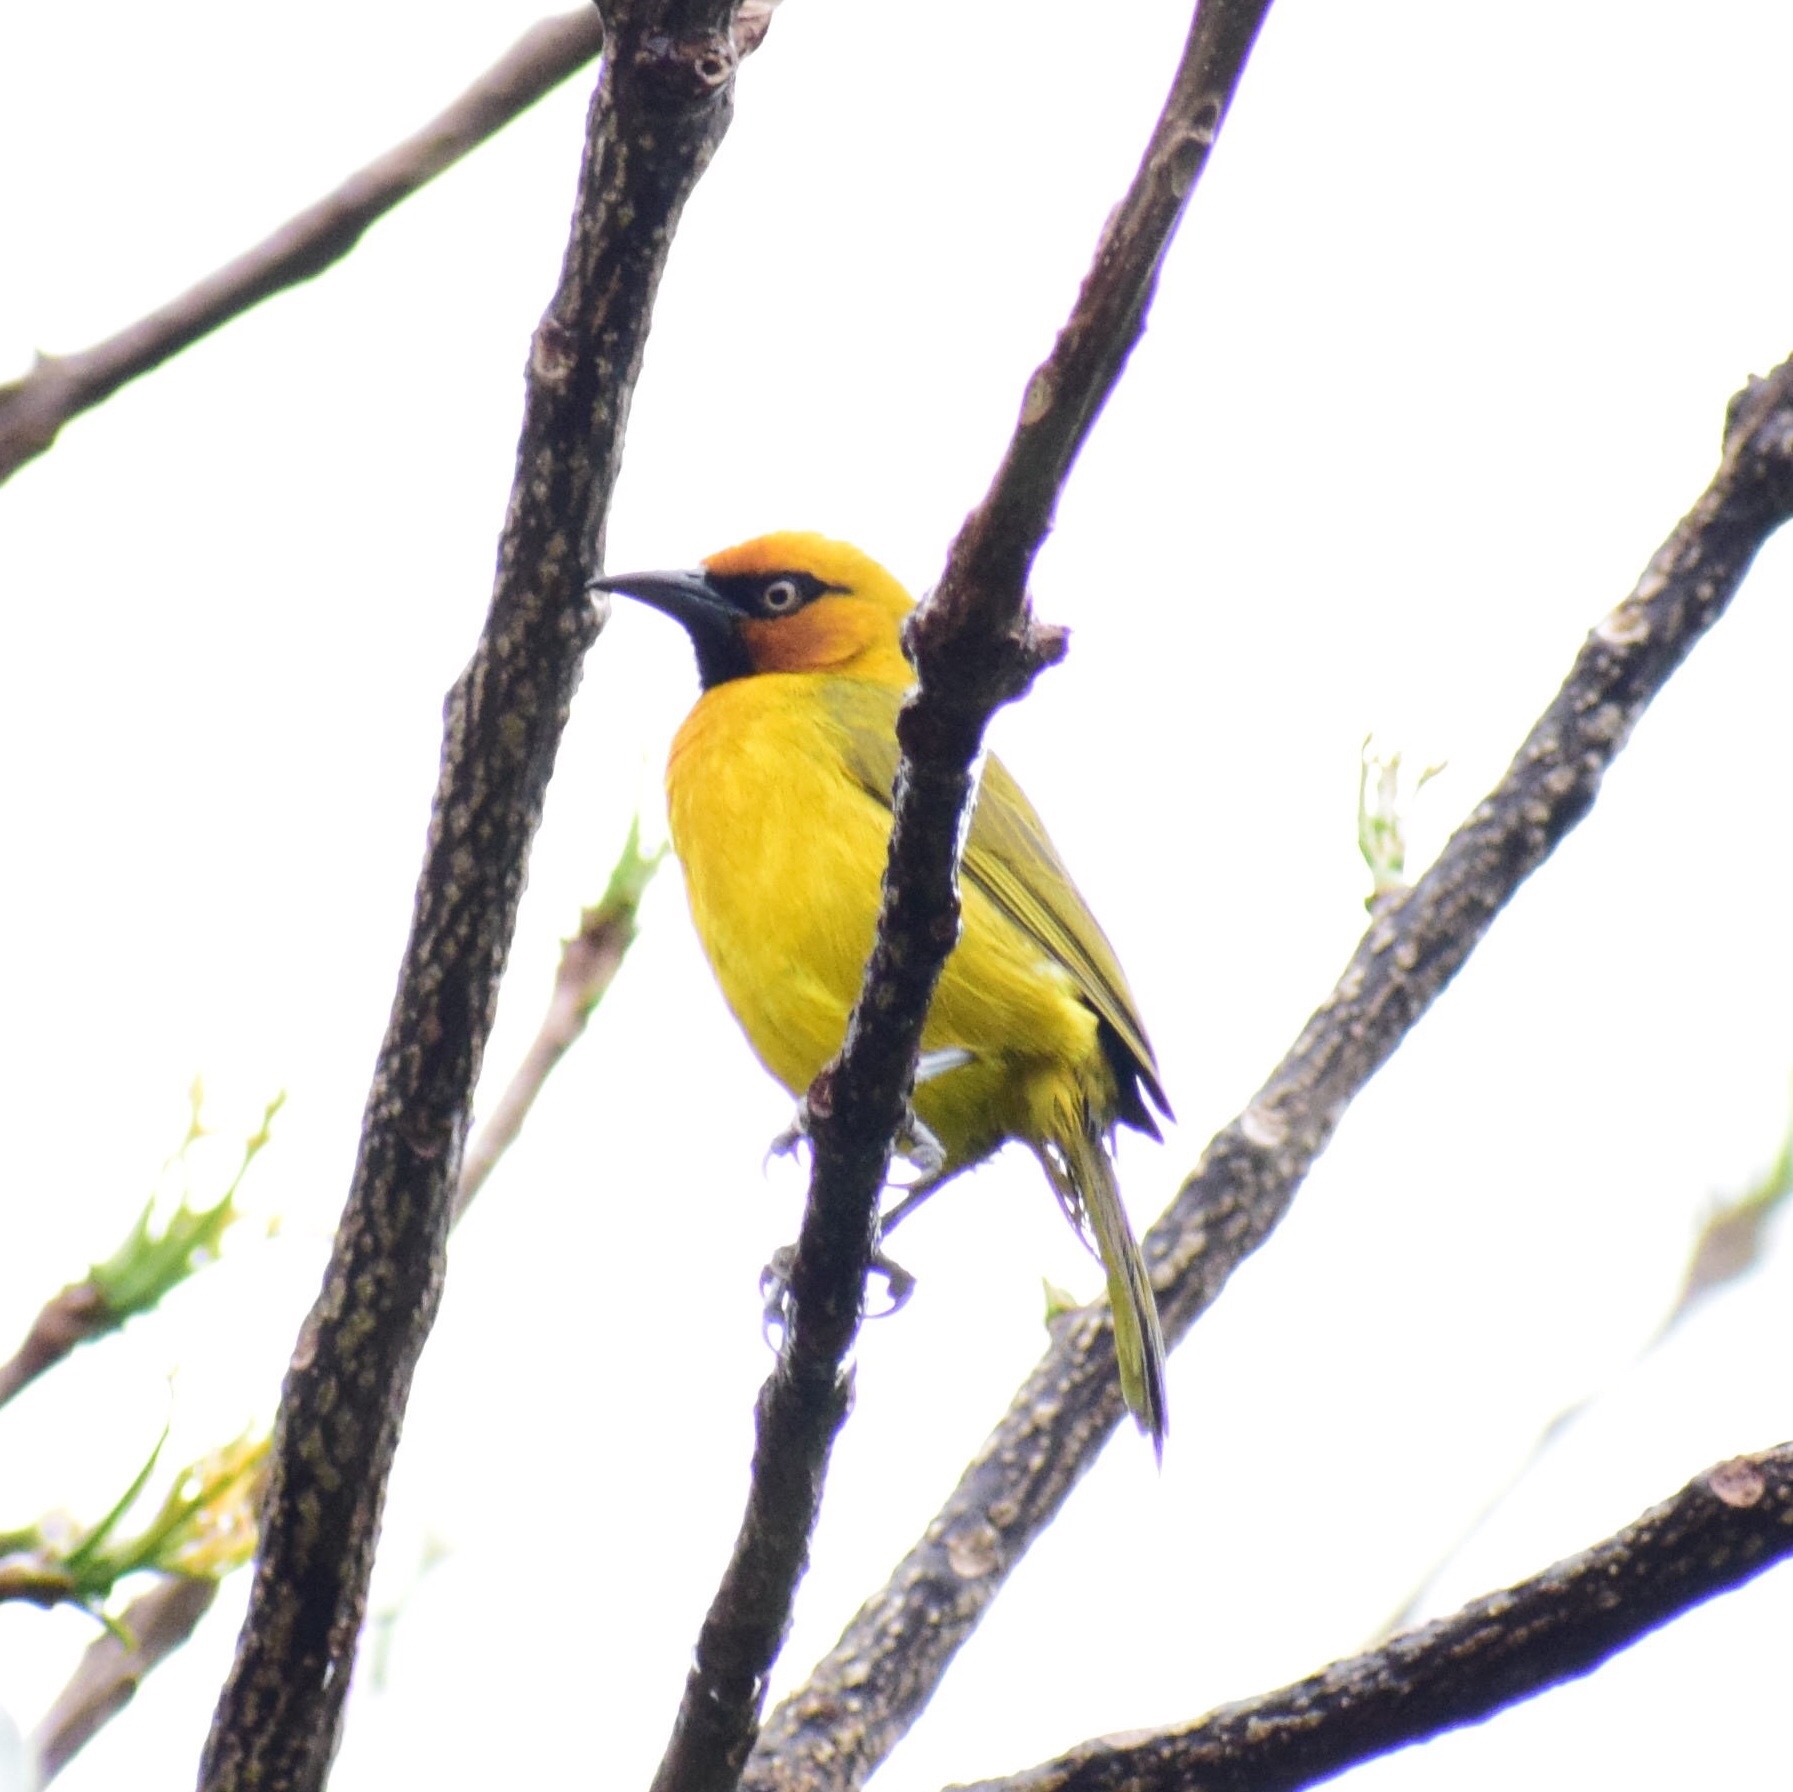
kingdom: Animalia
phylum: Chordata
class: Aves
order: Passeriformes
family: Ploceidae
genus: Ploceus
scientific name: Ploceus ocularis
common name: Spectacled weaver
